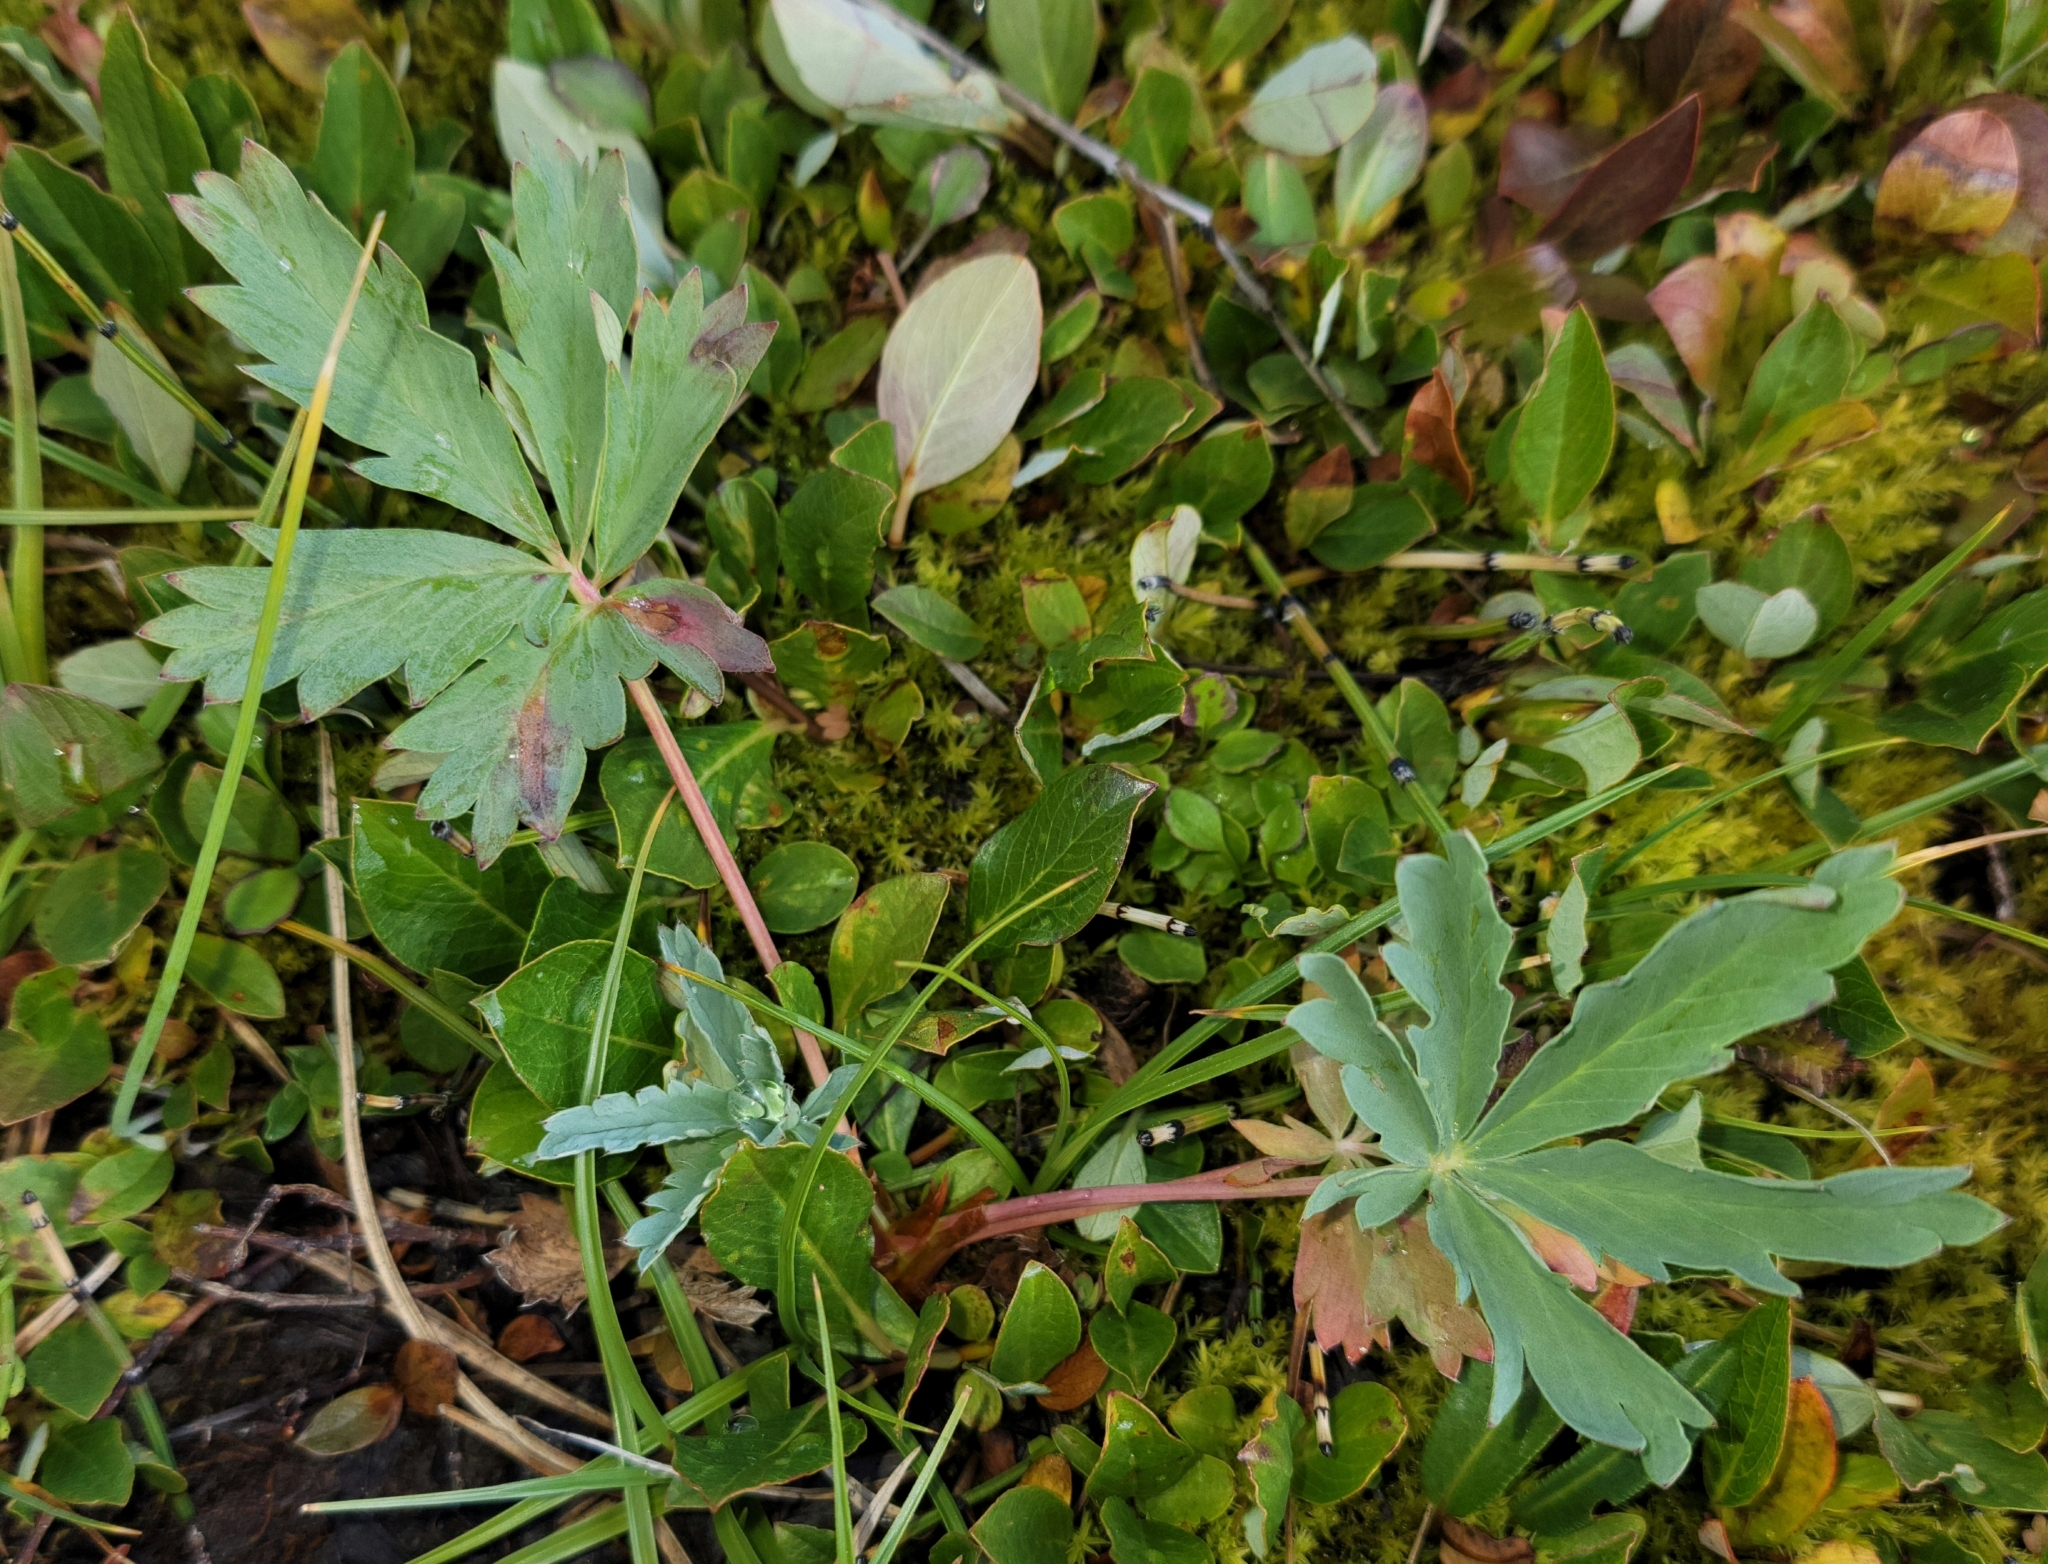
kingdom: Plantae
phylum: Tracheophyta
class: Magnoliopsida
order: Rosales
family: Rosaceae
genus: Potentilla
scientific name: Potentilla glaucophylla
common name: Blue-leaved cinquefoil
